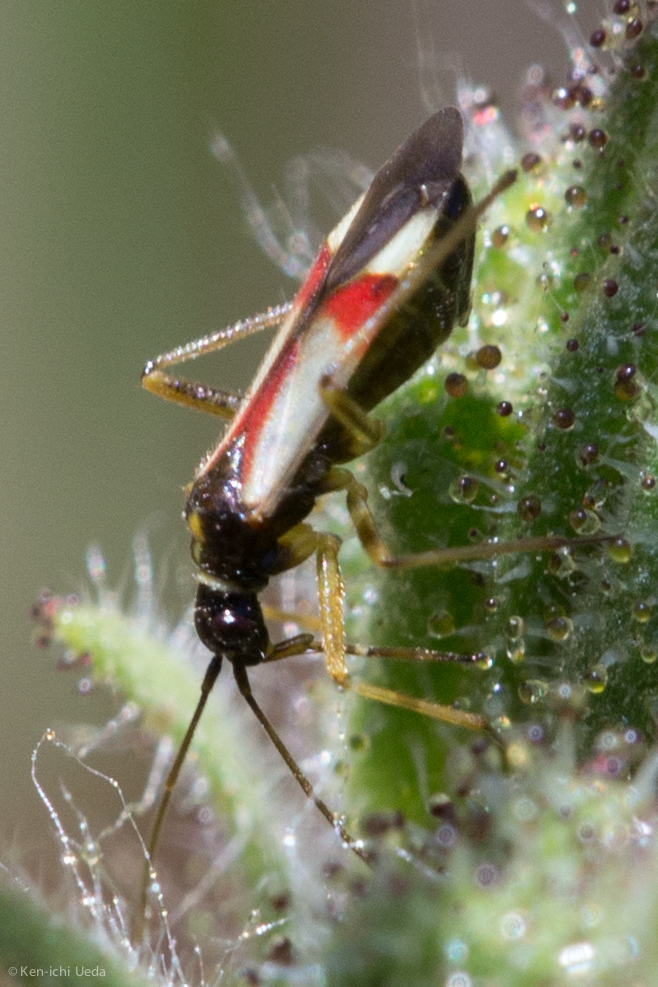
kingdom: Animalia
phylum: Arthropoda
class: Insecta
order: Hemiptera
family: Miridae
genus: Tupiocoris
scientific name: Tupiocoris californicus
